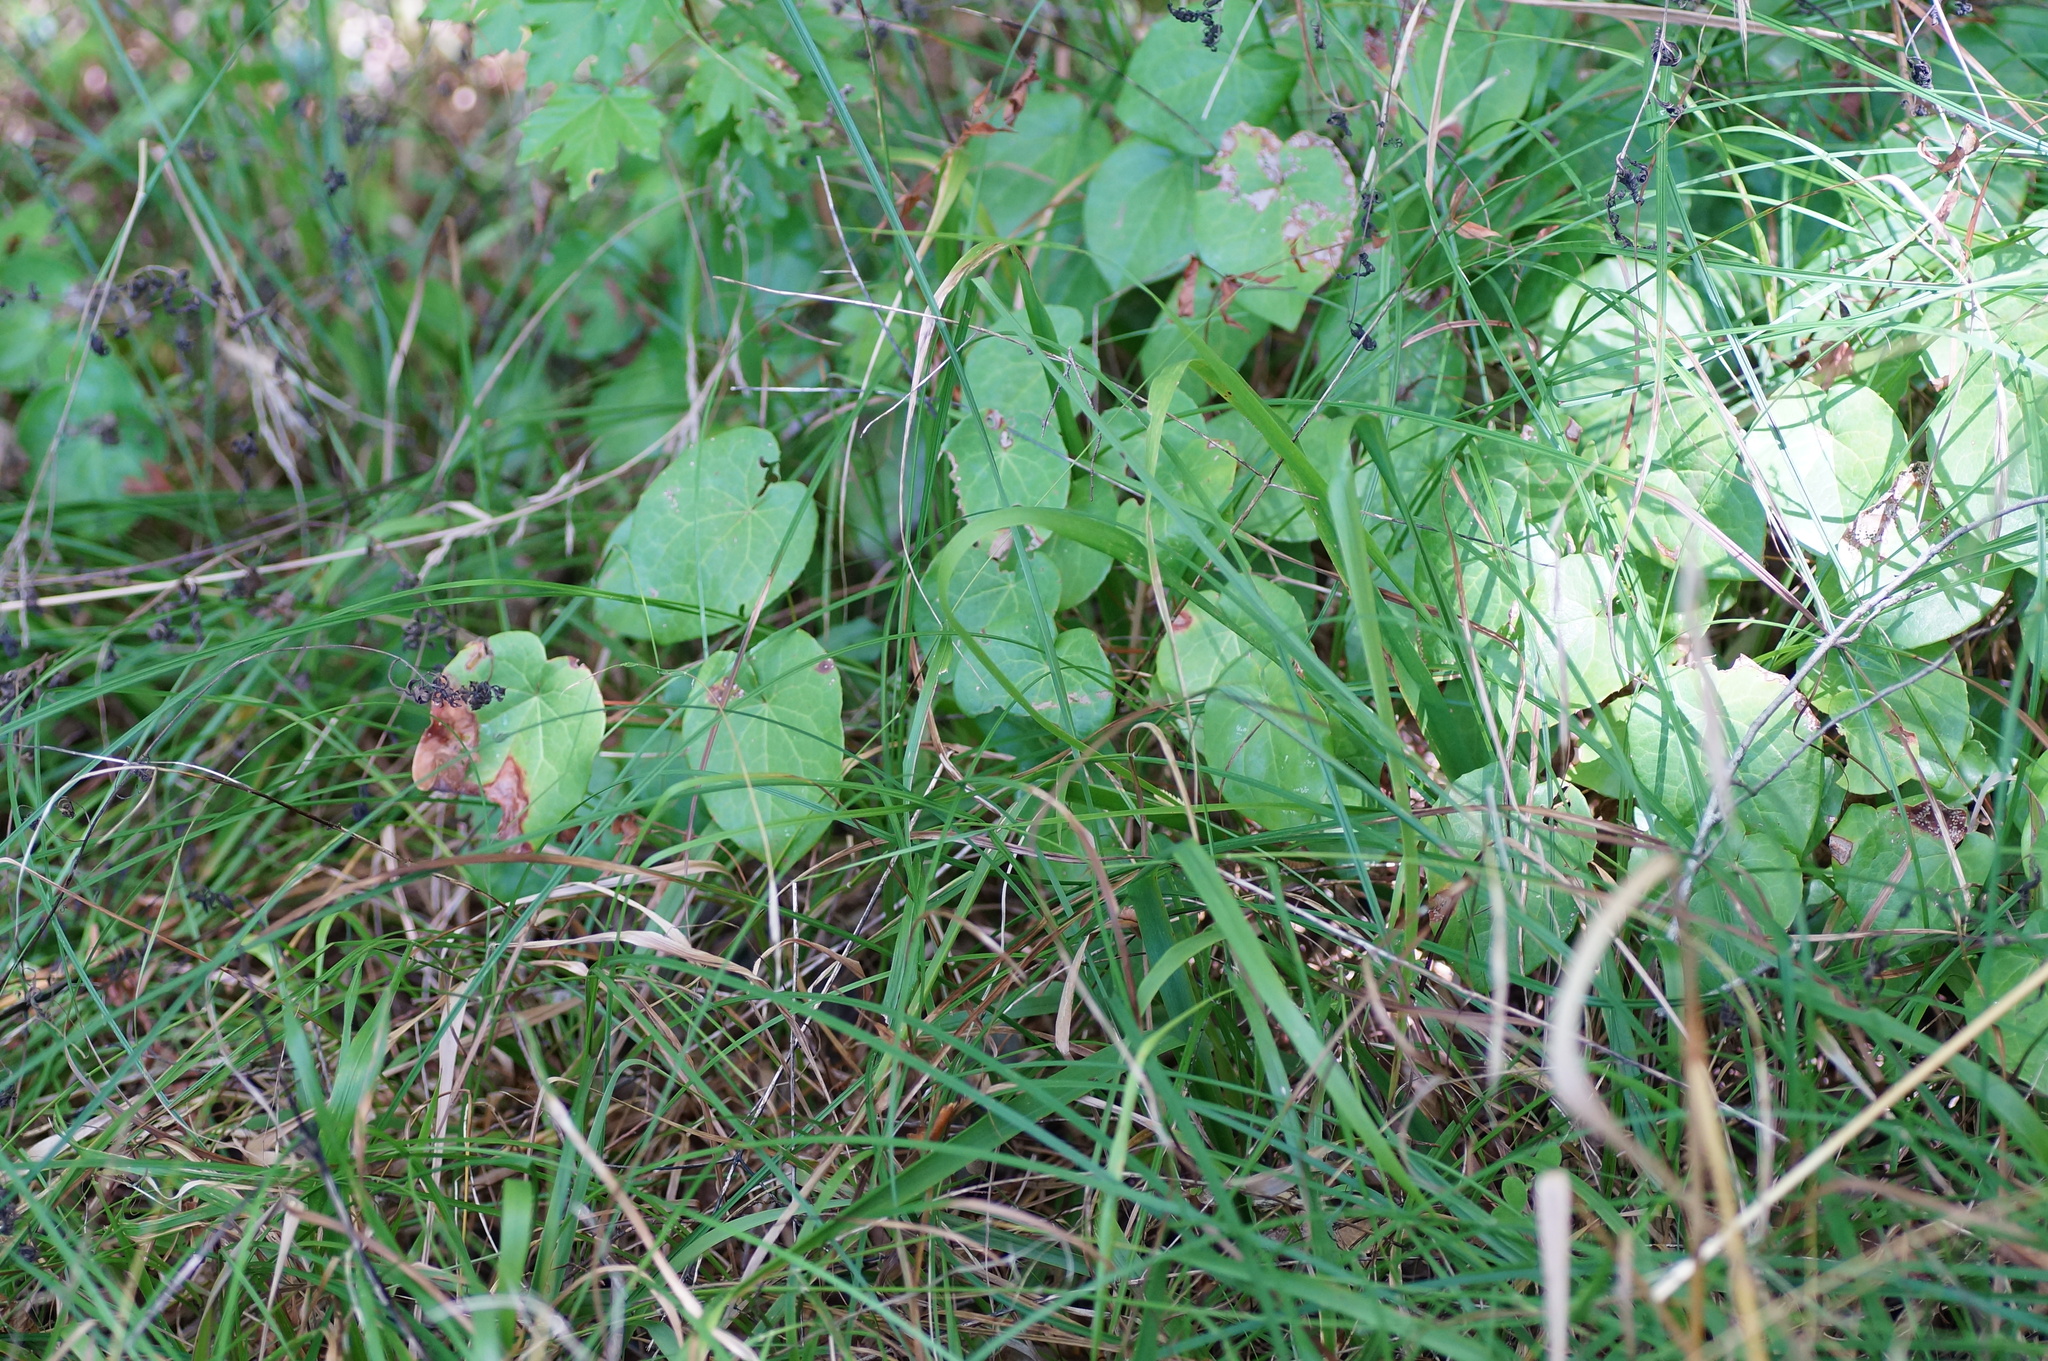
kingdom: Plantae
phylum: Tracheophyta
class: Magnoliopsida
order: Ranunculales
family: Berberidaceae
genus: Epimedium
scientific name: Epimedium pinnatum
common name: Caucasian barrenwort
